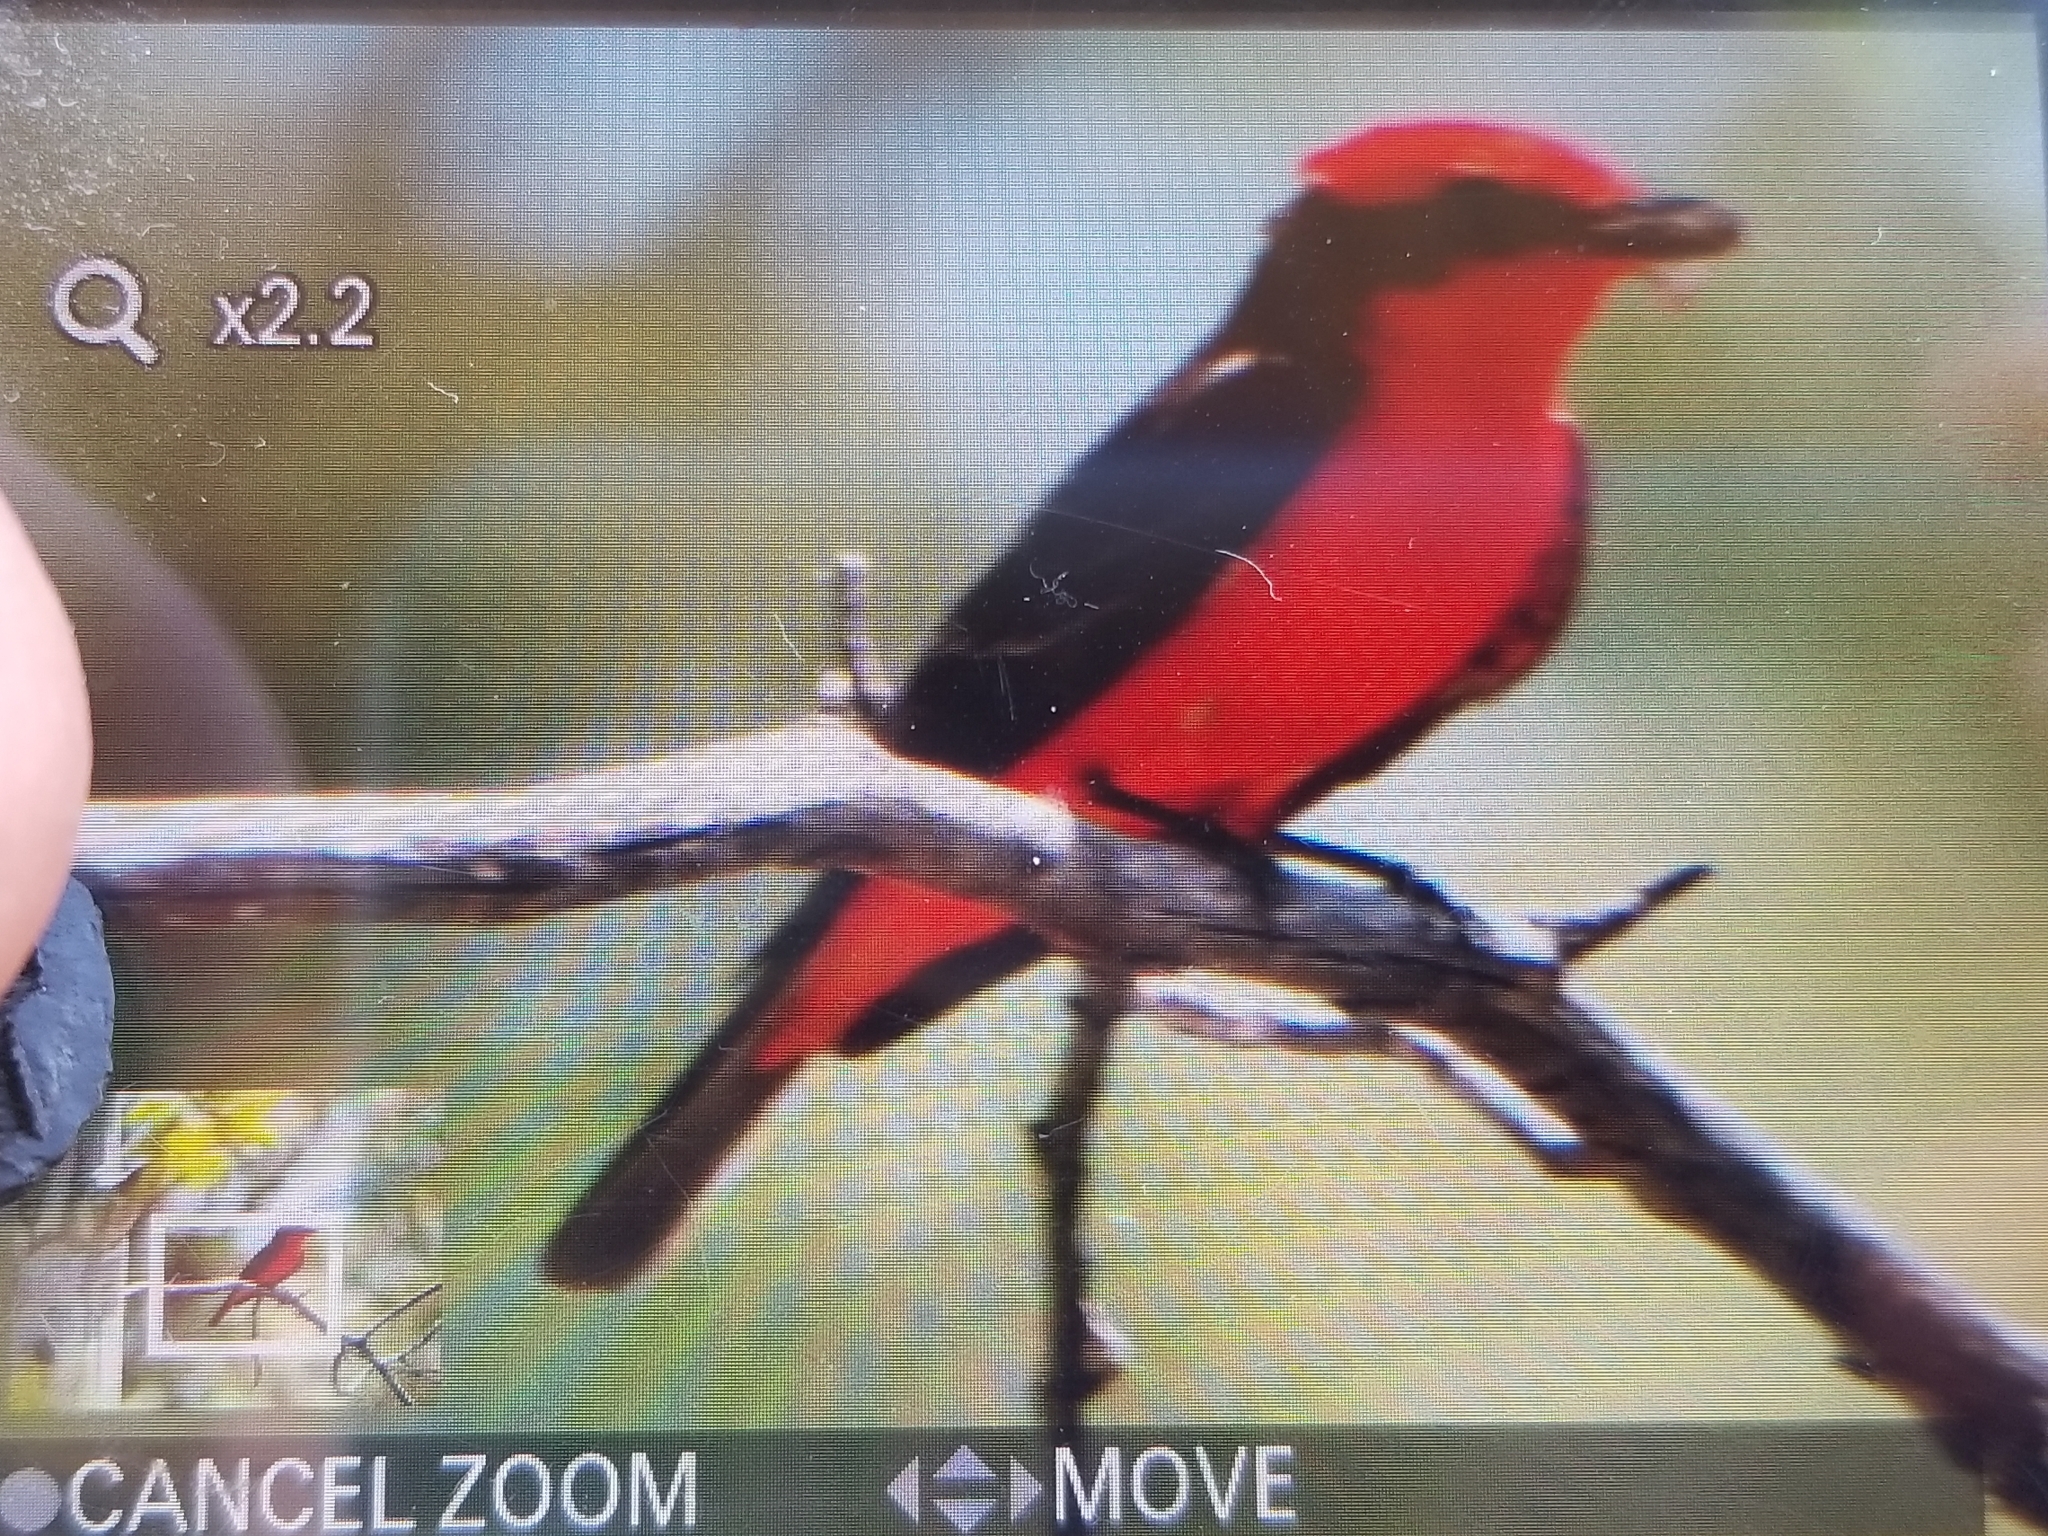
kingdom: Animalia
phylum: Chordata
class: Aves
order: Passeriformes
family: Tyrannidae
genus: Pyrocephalus
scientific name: Pyrocephalus rubinus
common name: Vermilion flycatcher
